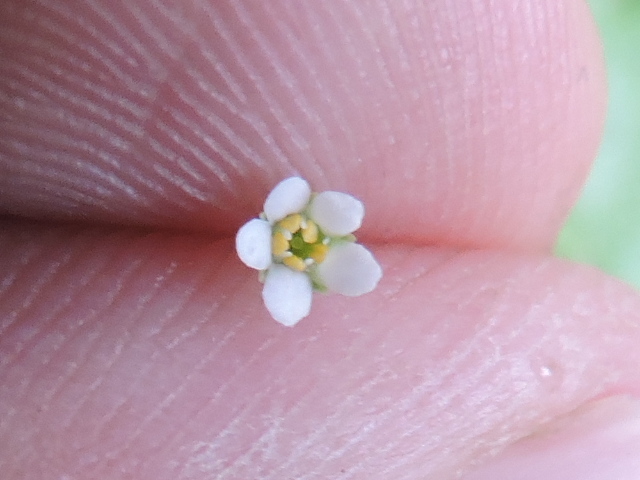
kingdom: Plantae
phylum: Tracheophyta
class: Magnoliopsida
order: Ericales
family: Primulaceae
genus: Samolus
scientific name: Samolus parviflorus
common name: False water pimpernel
